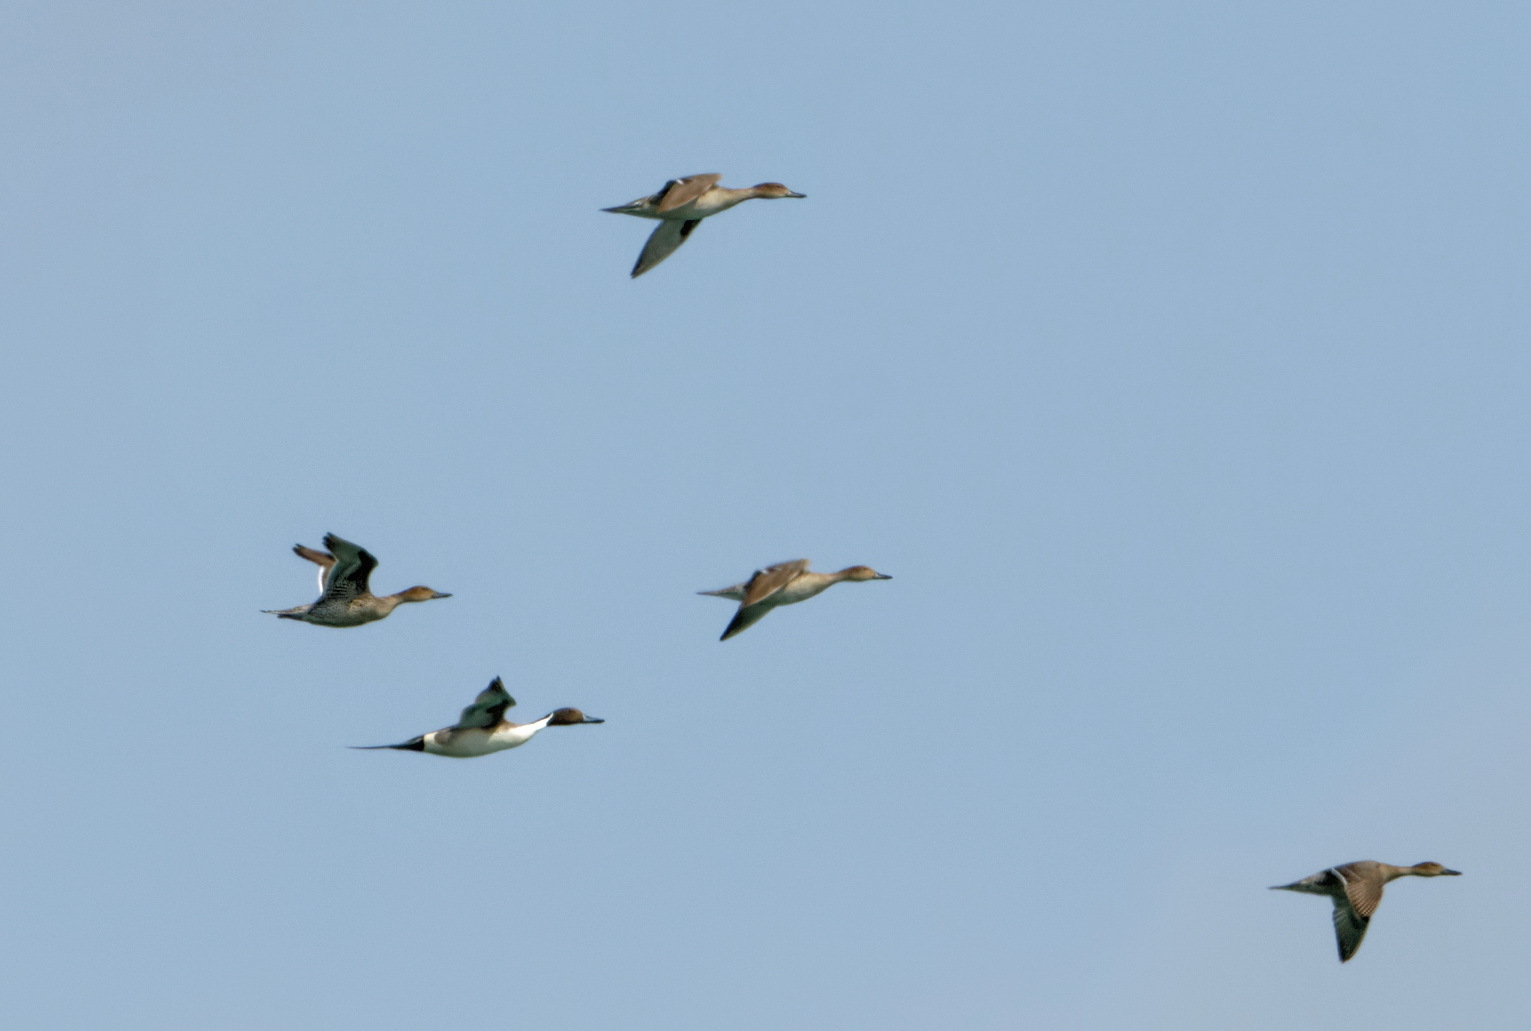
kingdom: Animalia
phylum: Chordata
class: Aves
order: Anseriformes
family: Anatidae
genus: Anas
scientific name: Anas acuta
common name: Northern pintail
